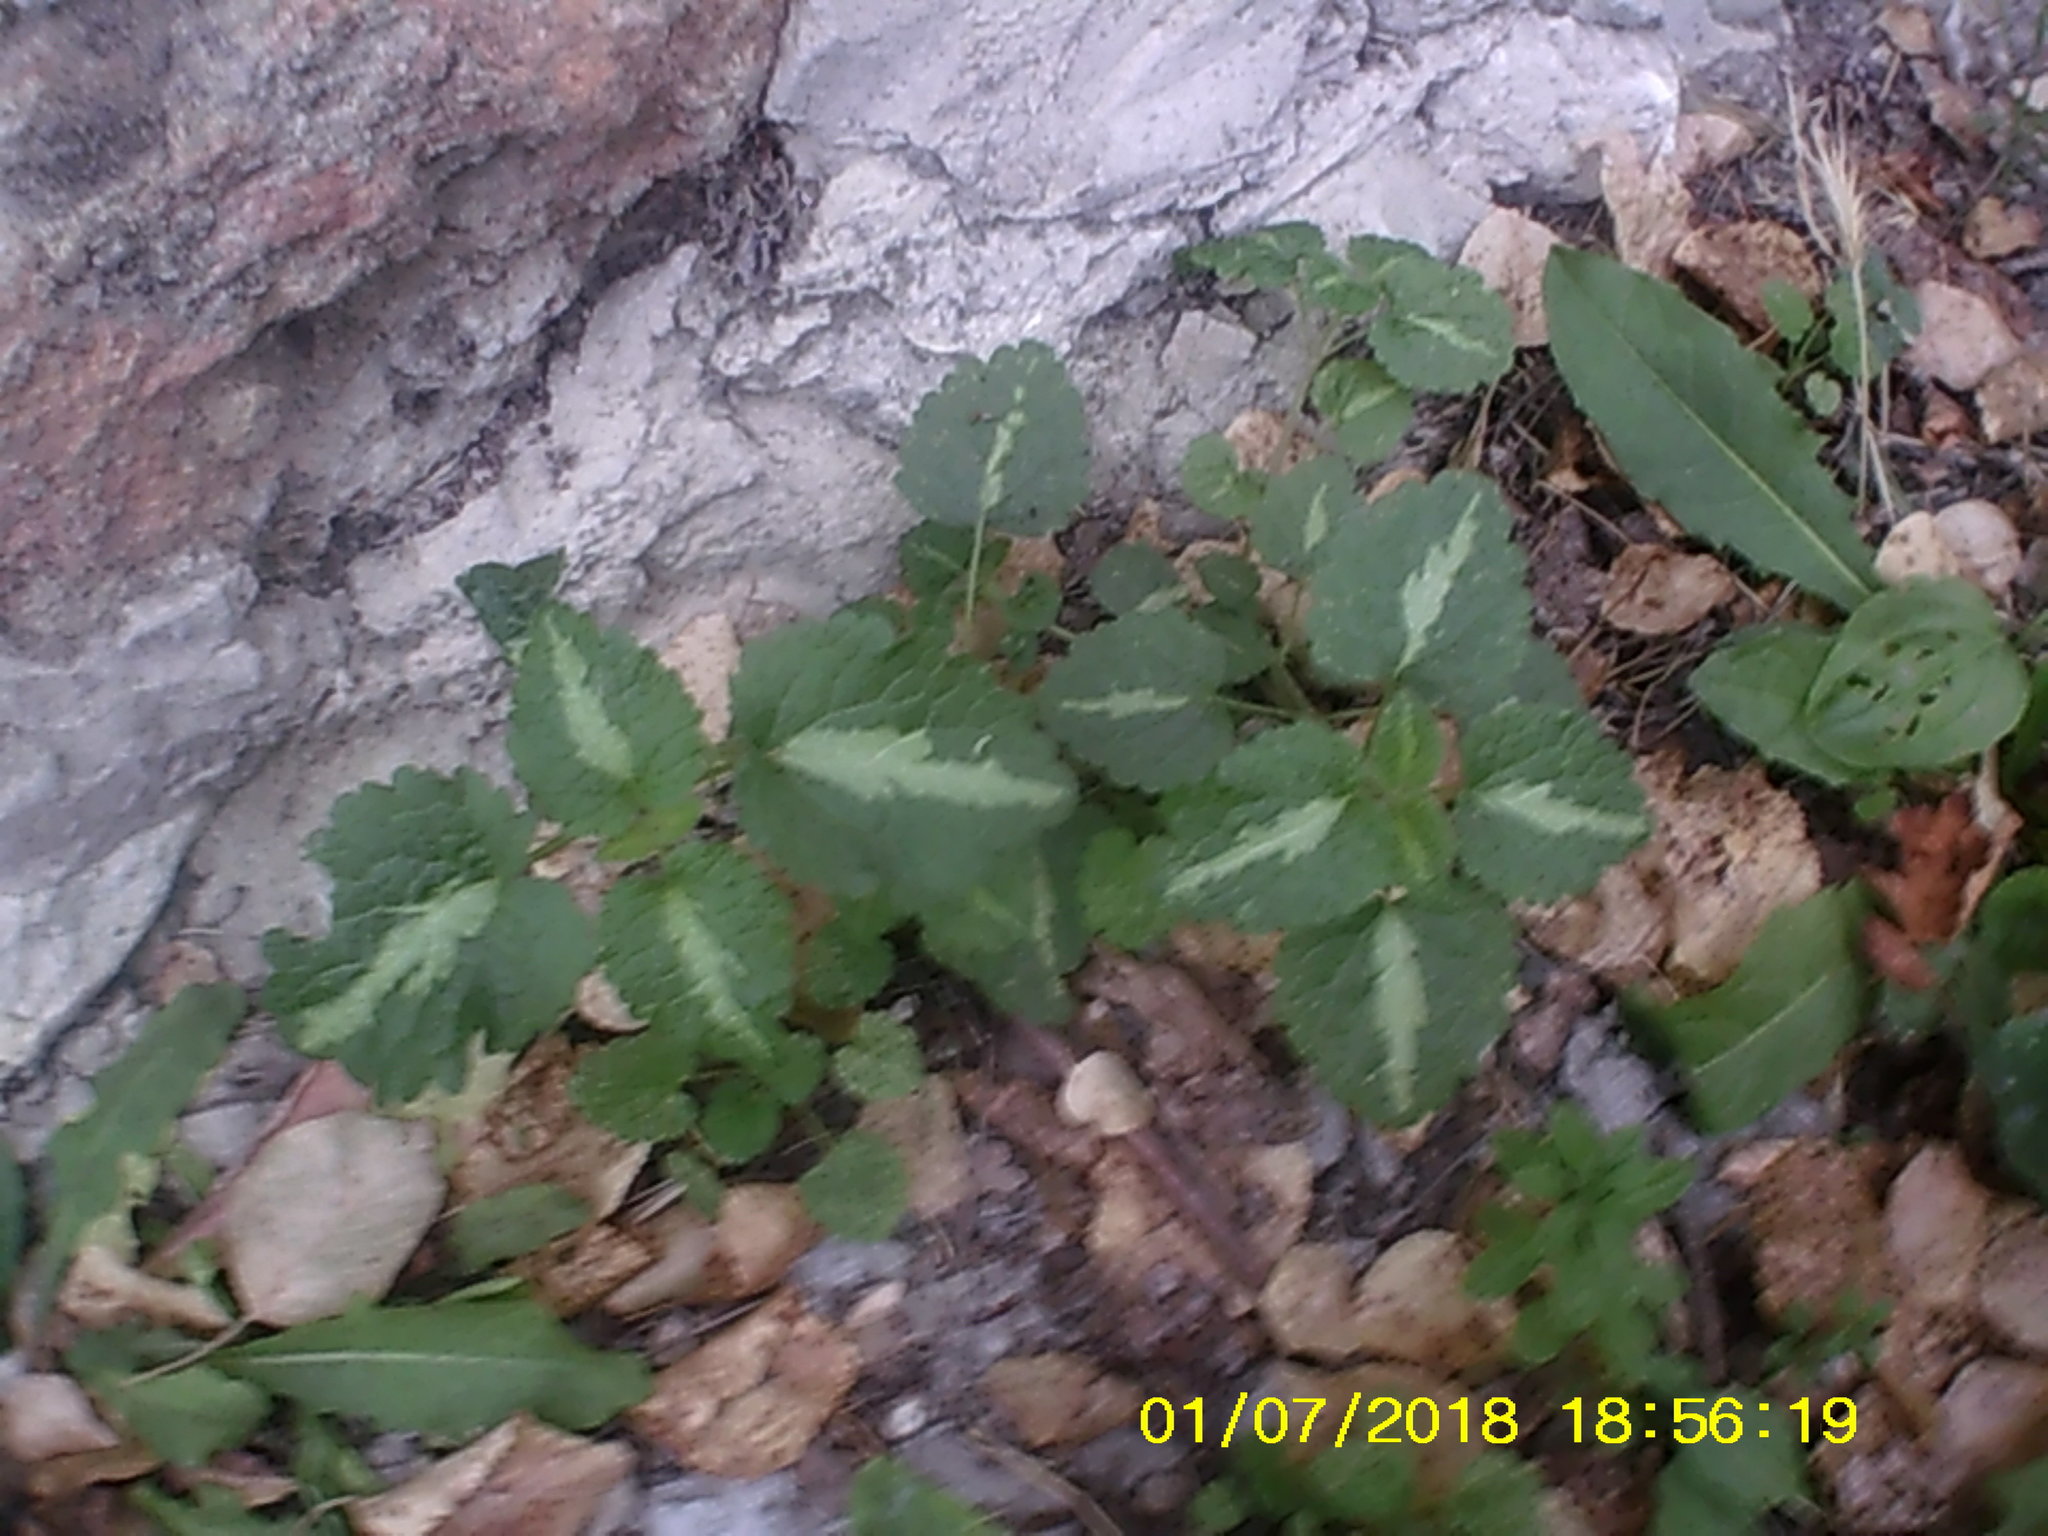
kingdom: Plantae
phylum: Tracheophyta
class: Magnoliopsida
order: Lamiales
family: Lamiaceae
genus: Lamium
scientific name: Lamium maculatum
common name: Spotted dead-nettle
